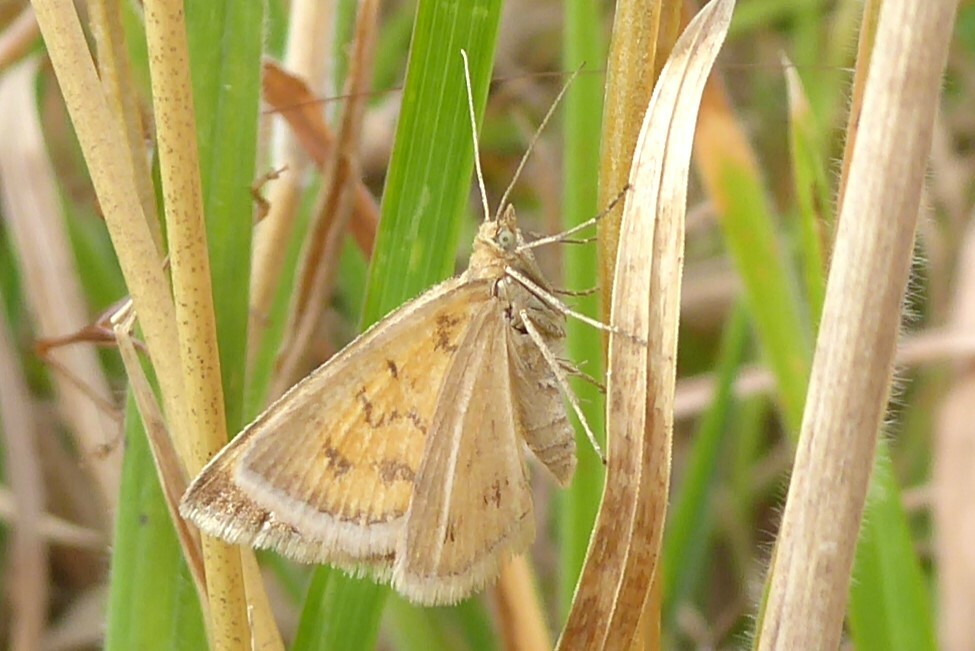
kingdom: Animalia
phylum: Arthropoda
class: Insecta
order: Lepidoptera
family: Geometridae
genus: Asaphodes
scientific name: Asaphodes abrogata
